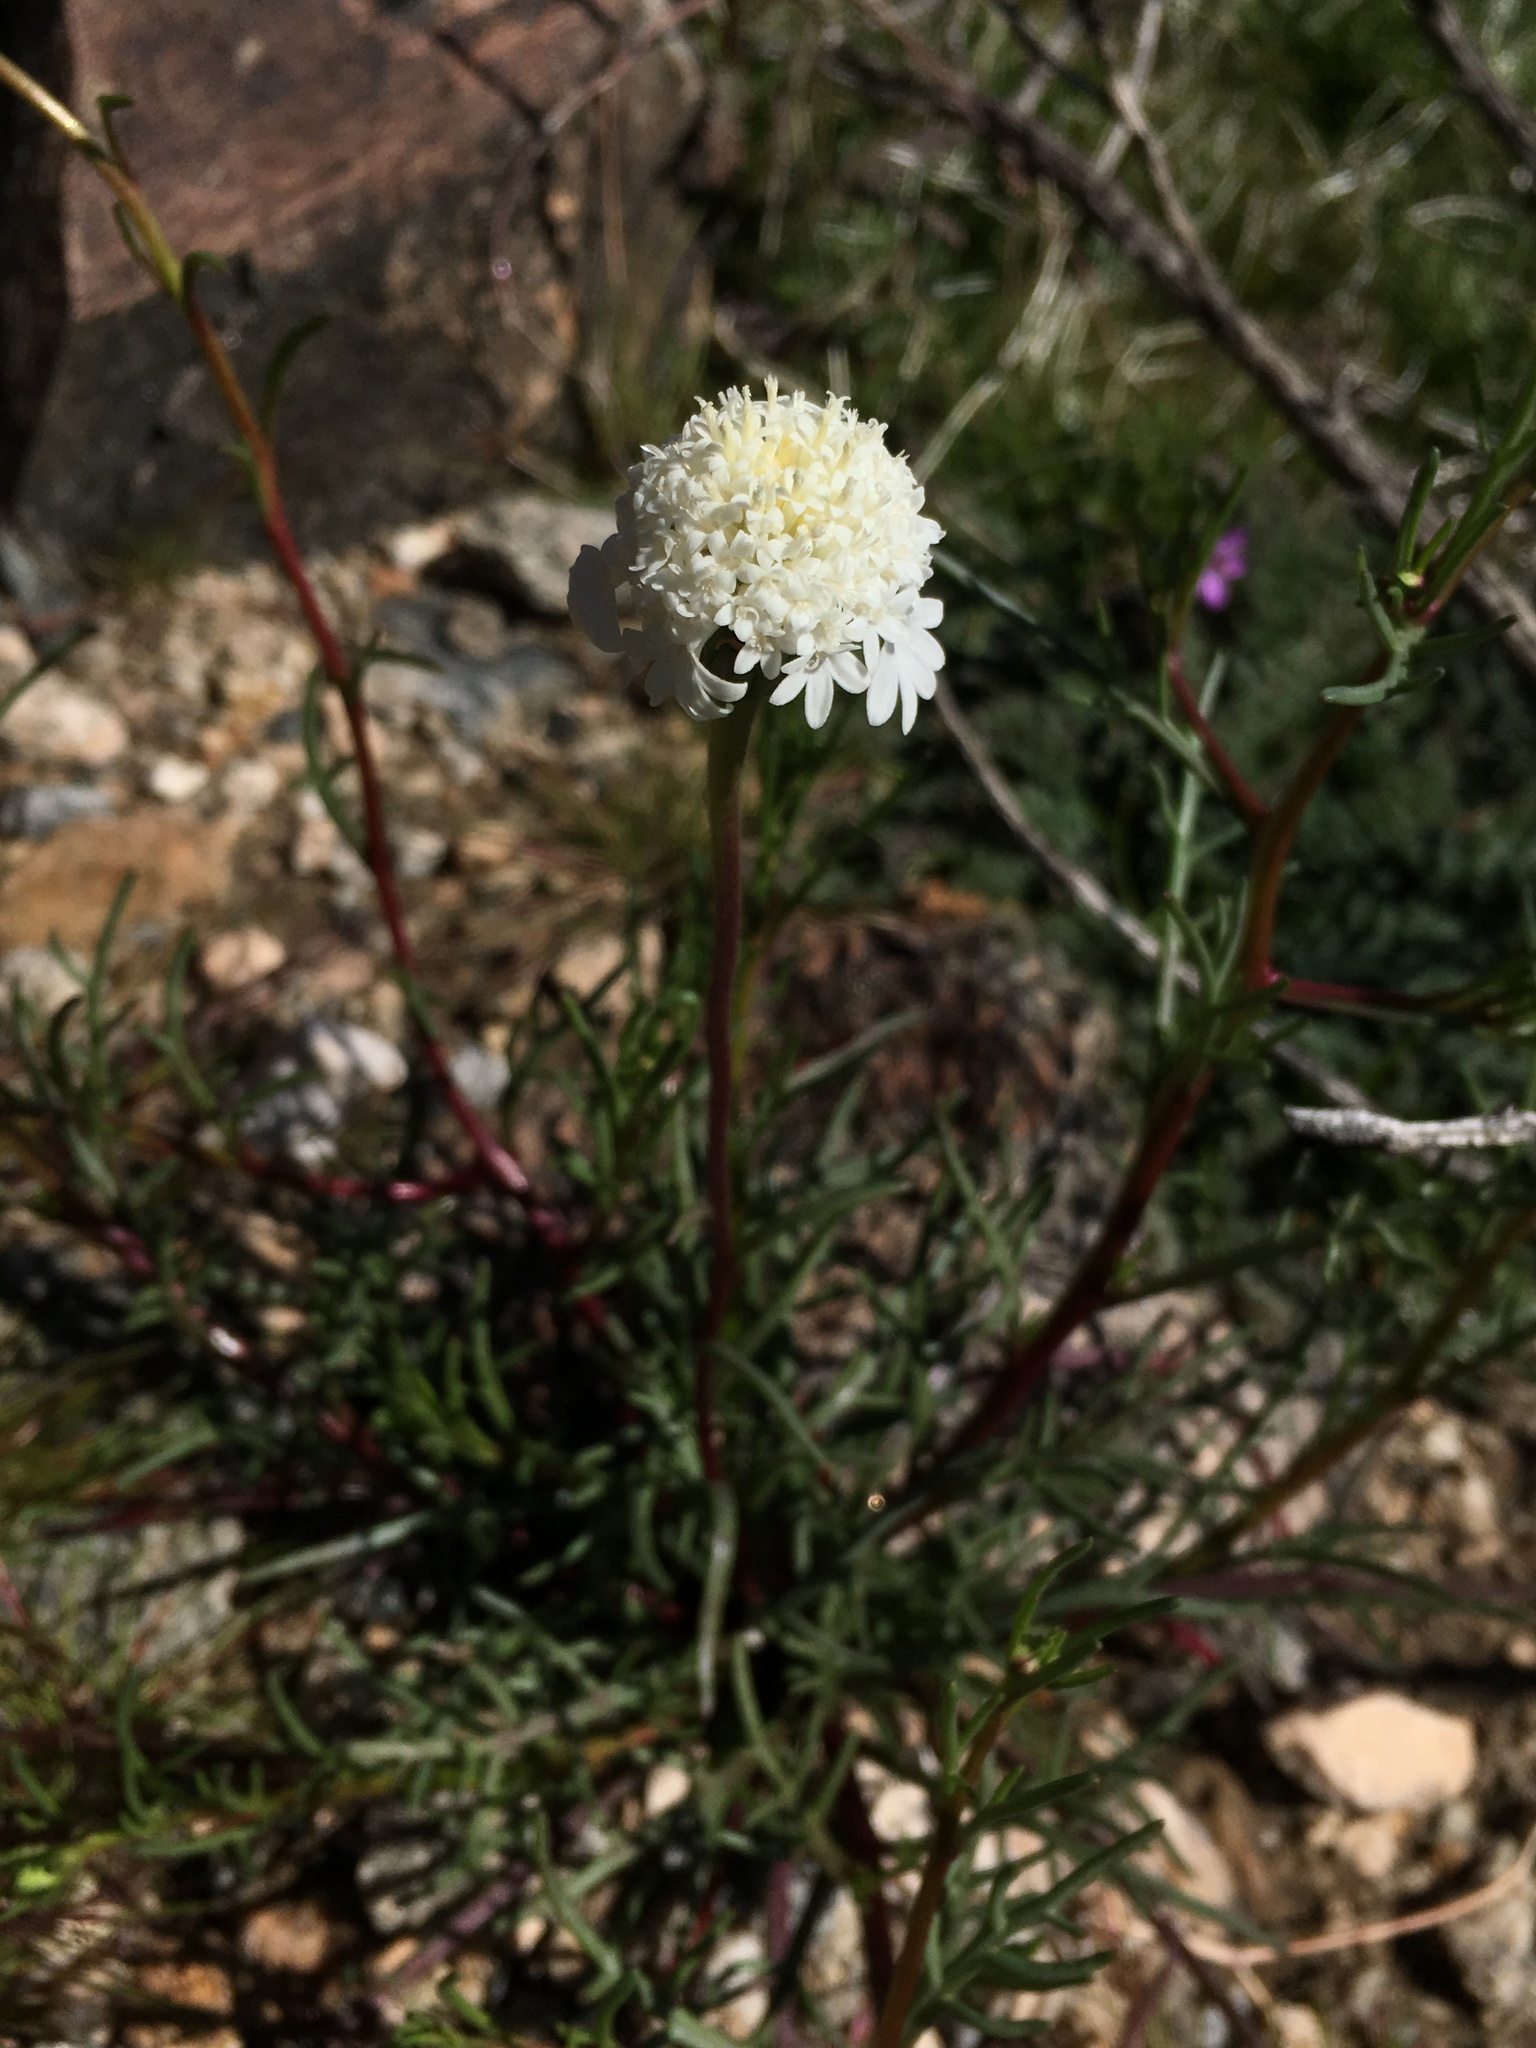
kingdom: Plantae
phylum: Tracheophyta
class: Magnoliopsida
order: Asterales
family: Asteraceae
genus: Chaenactis
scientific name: Chaenactis fremontii
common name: Fremont pincushion
